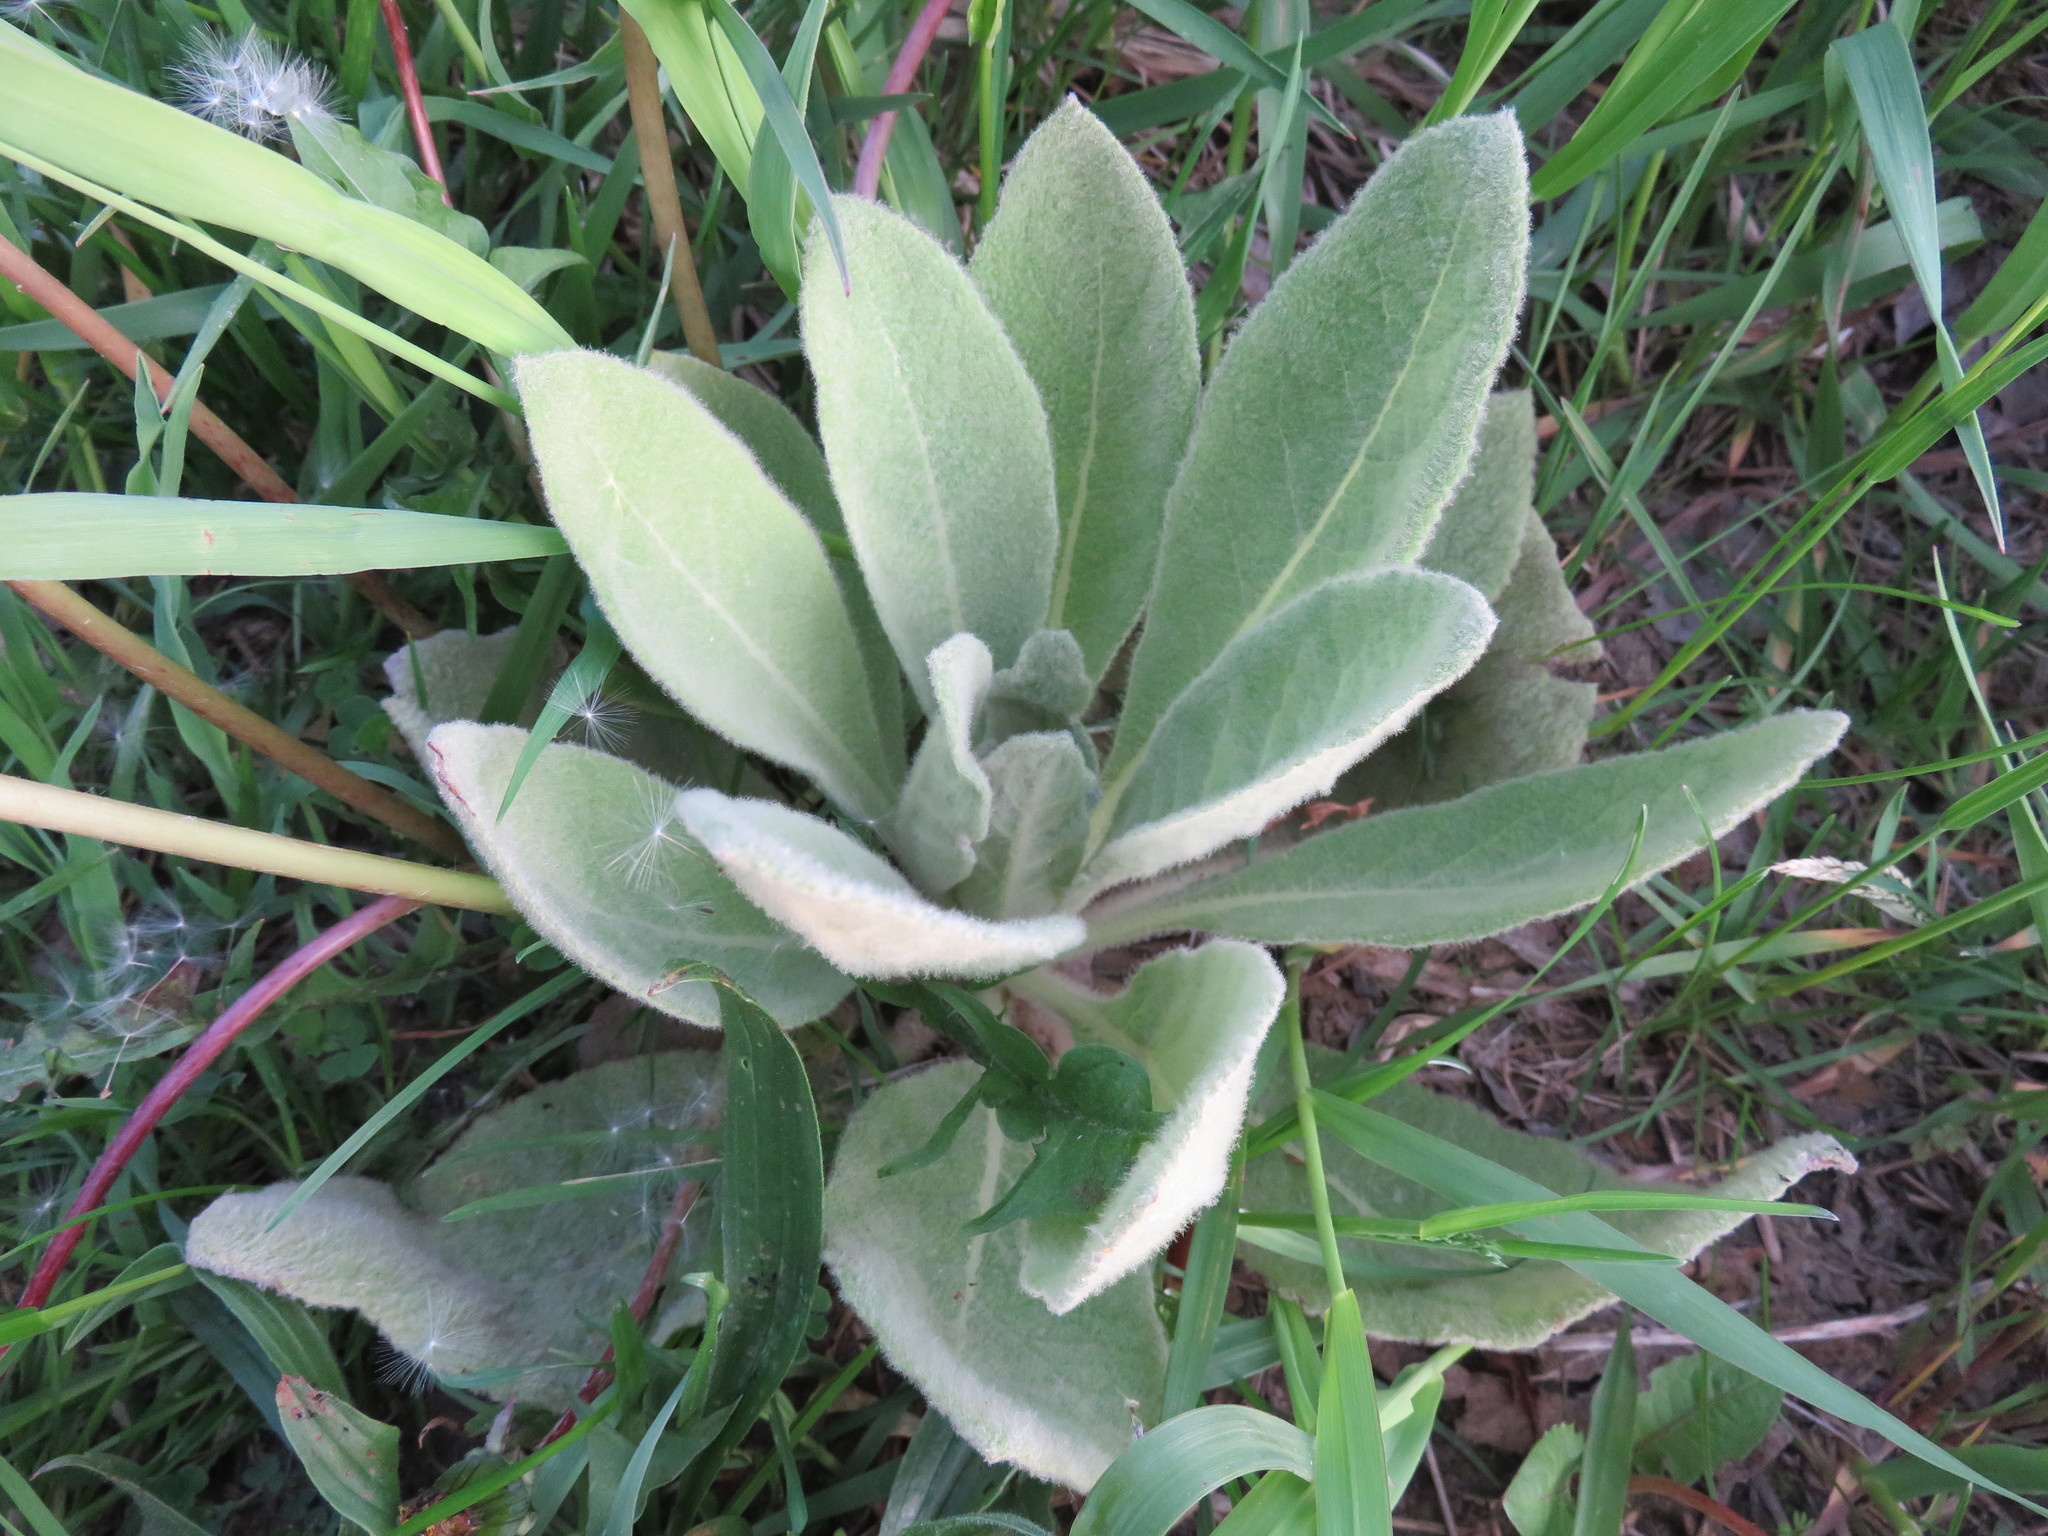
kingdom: Plantae
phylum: Tracheophyta
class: Magnoliopsida
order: Lamiales
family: Scrophulariaceae
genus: Verbascum
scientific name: Verbascum thapsus
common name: Common mullein
